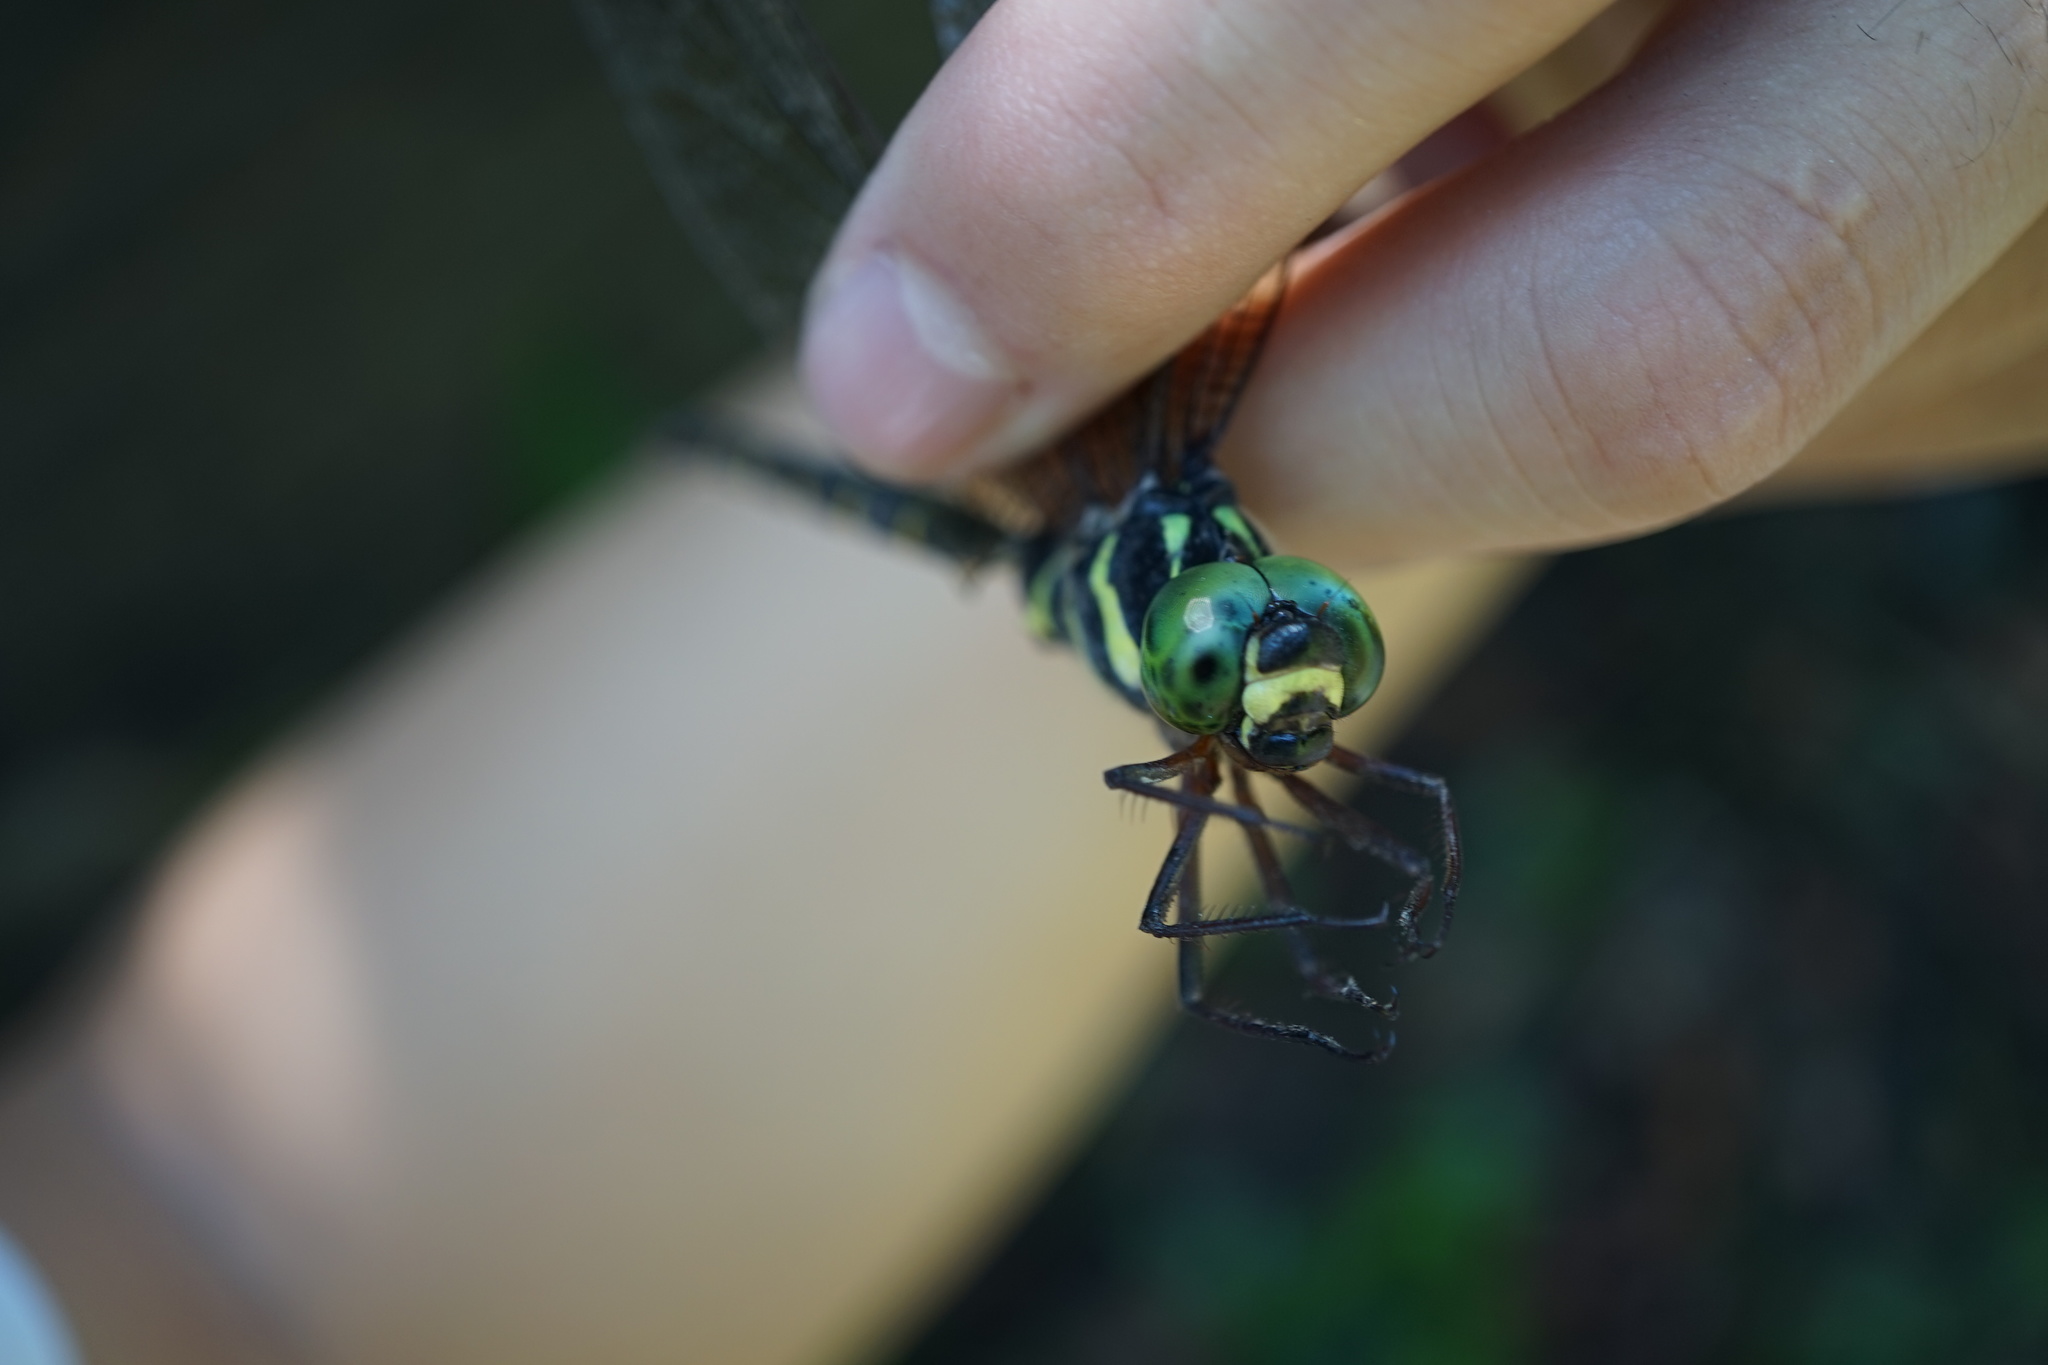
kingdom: Animalia
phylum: Arthropoda
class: Insecta
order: Odonata
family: Aeshnidae
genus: Boyeria
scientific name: Boyeria maclachlani
